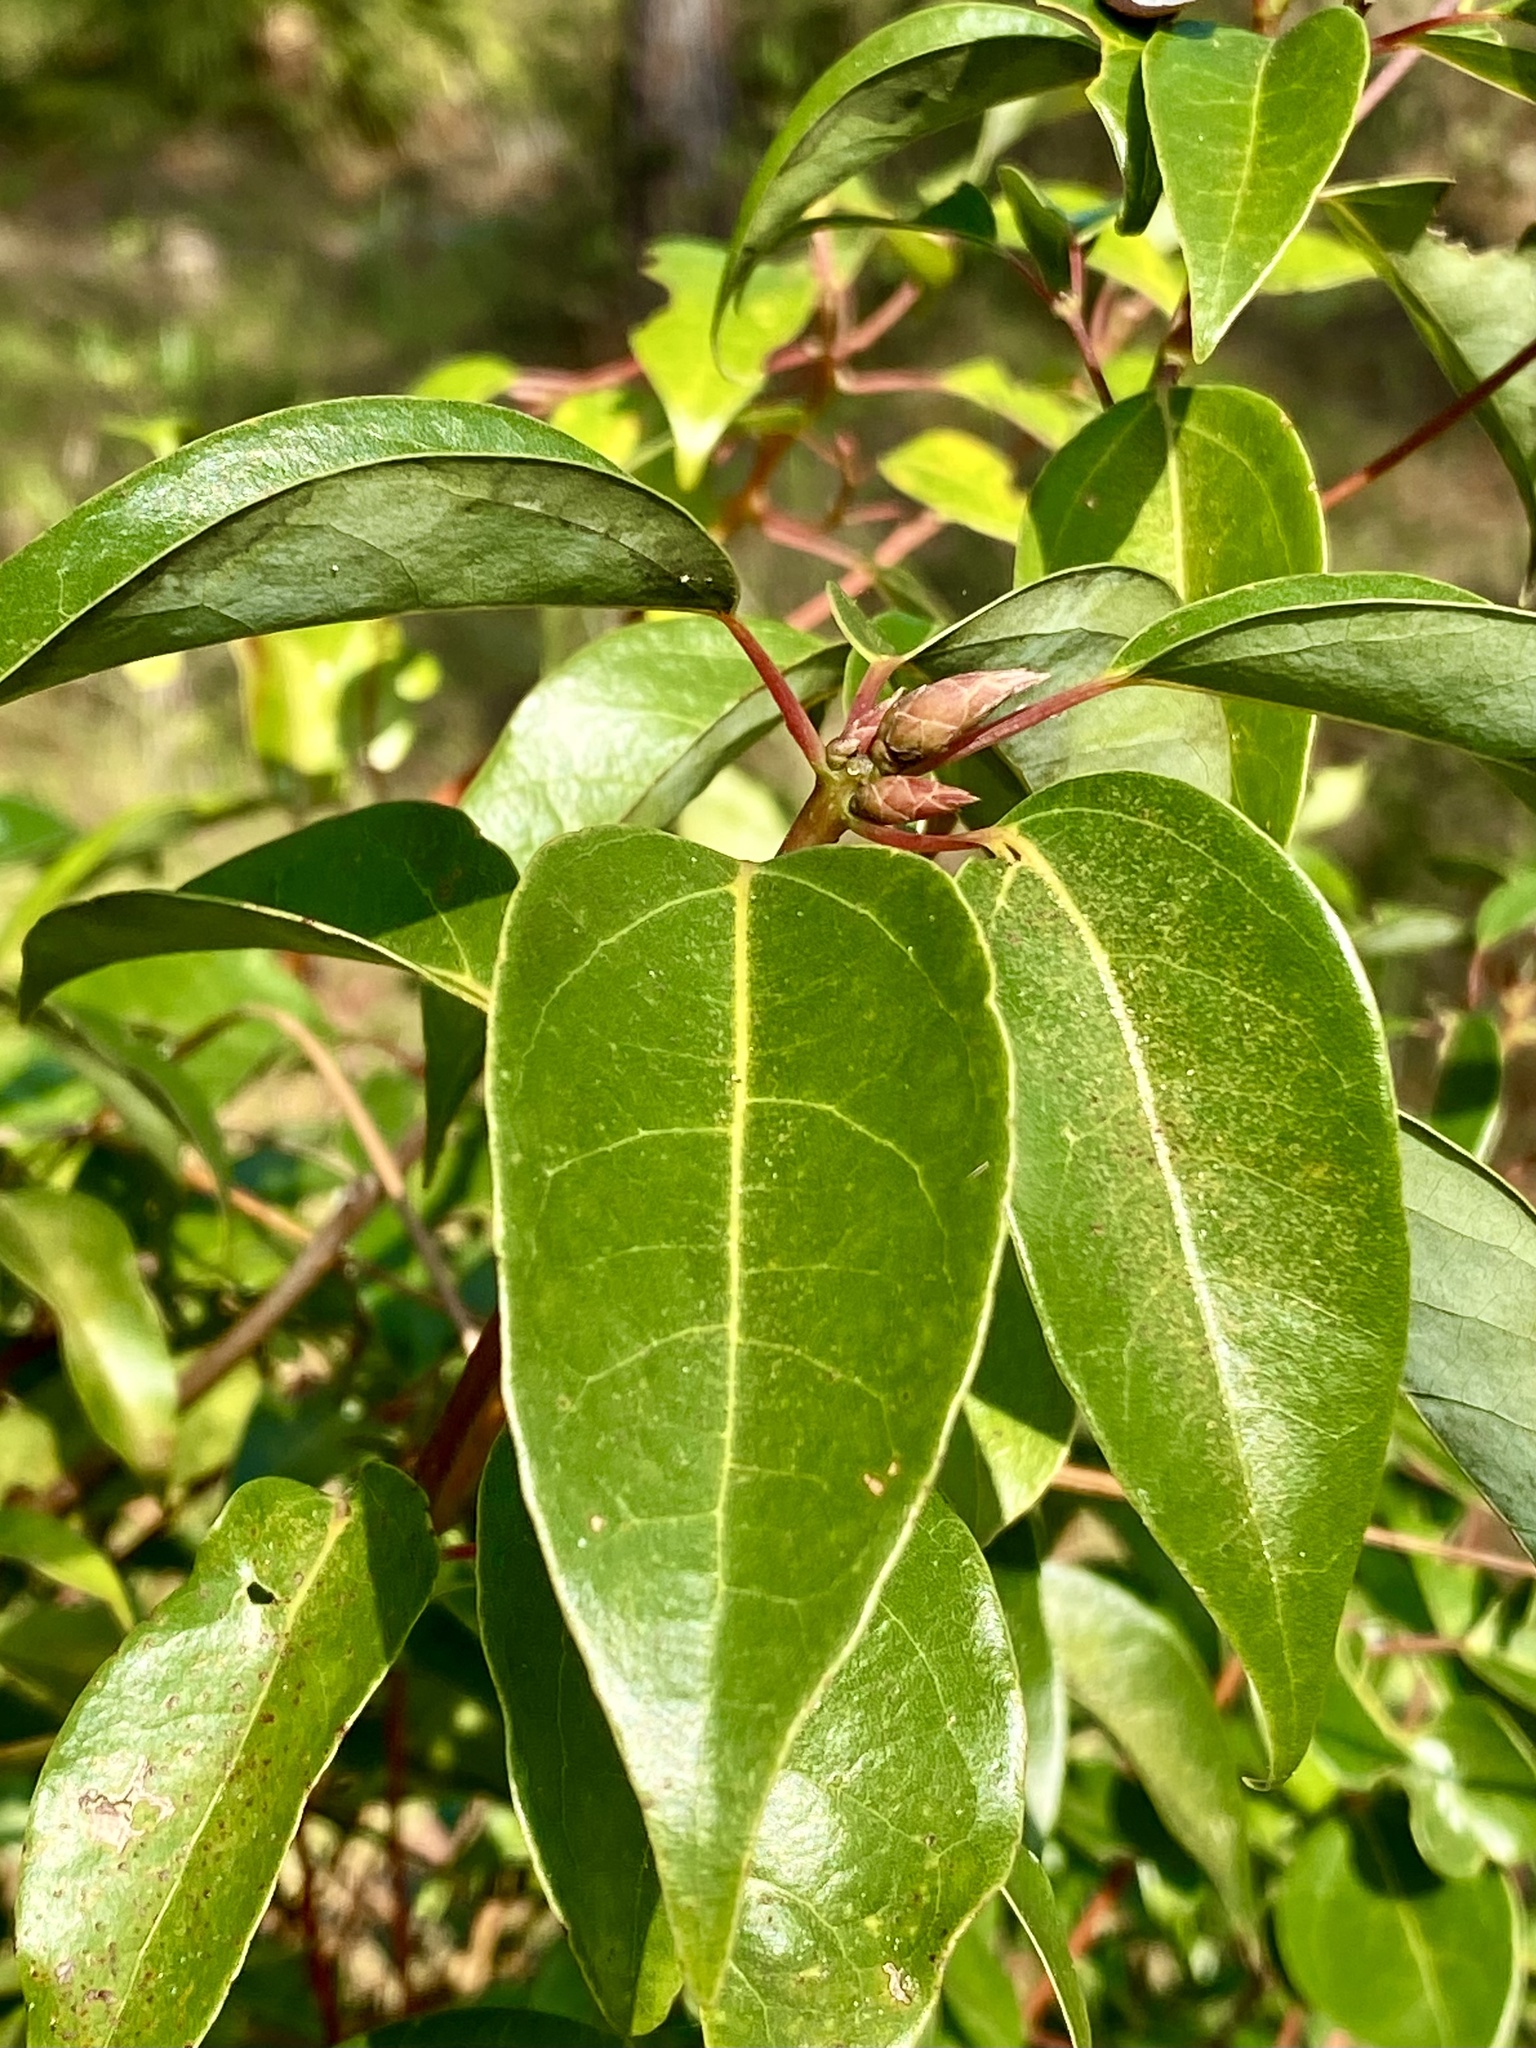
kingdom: Plantae
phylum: Tracheophyta
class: Magnoliopsida
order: Laurales
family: Lauraceae
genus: Cinnamomum
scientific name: Cinnamomum camphora
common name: Camphortree
